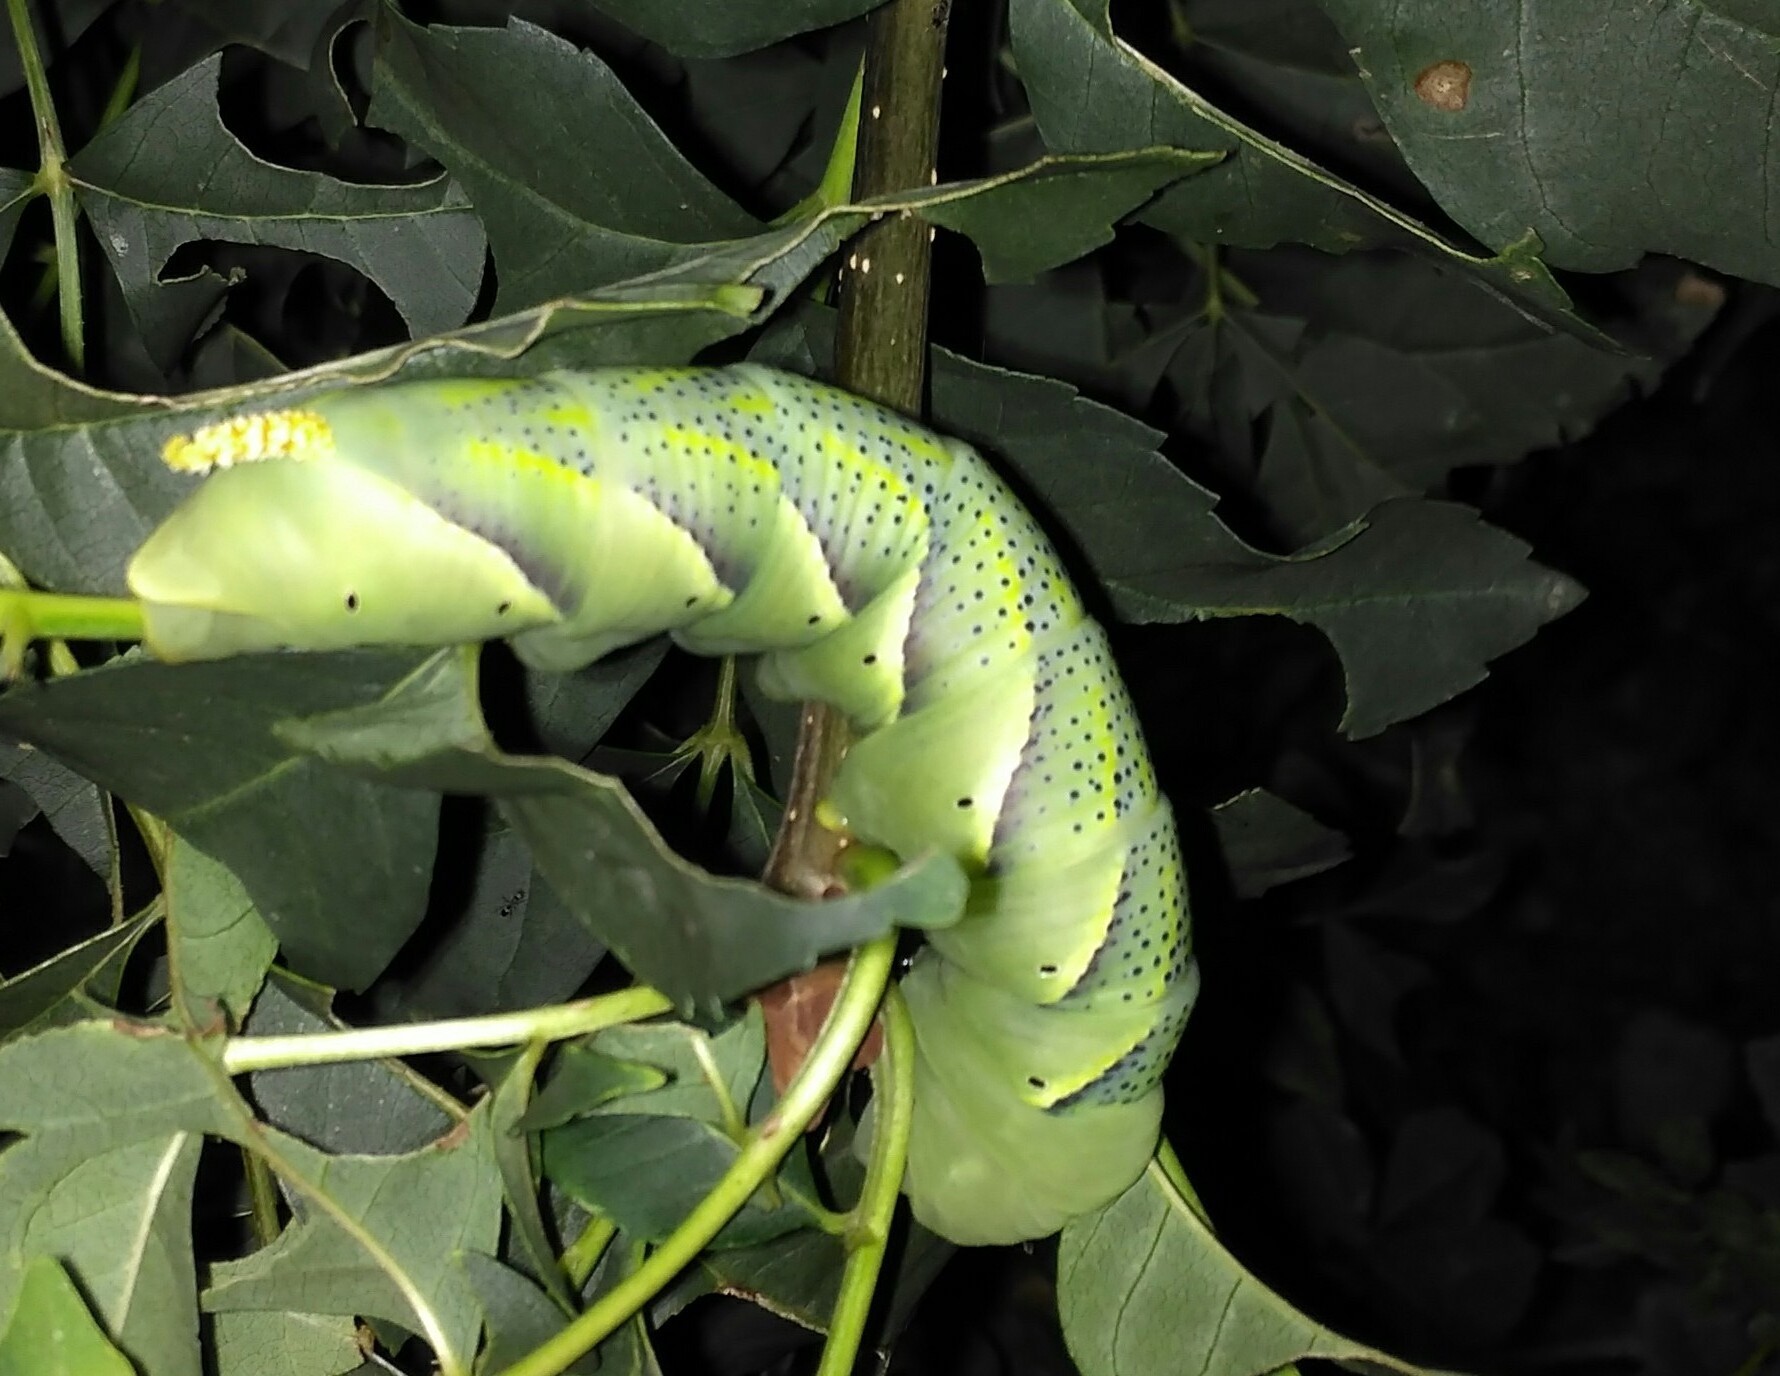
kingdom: Animalia
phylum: Arthropoda
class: Insecta
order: Lepidoptera
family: Sphingidae
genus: Acherontia
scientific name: Acherontia atropos
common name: Death's-head hawk moth
